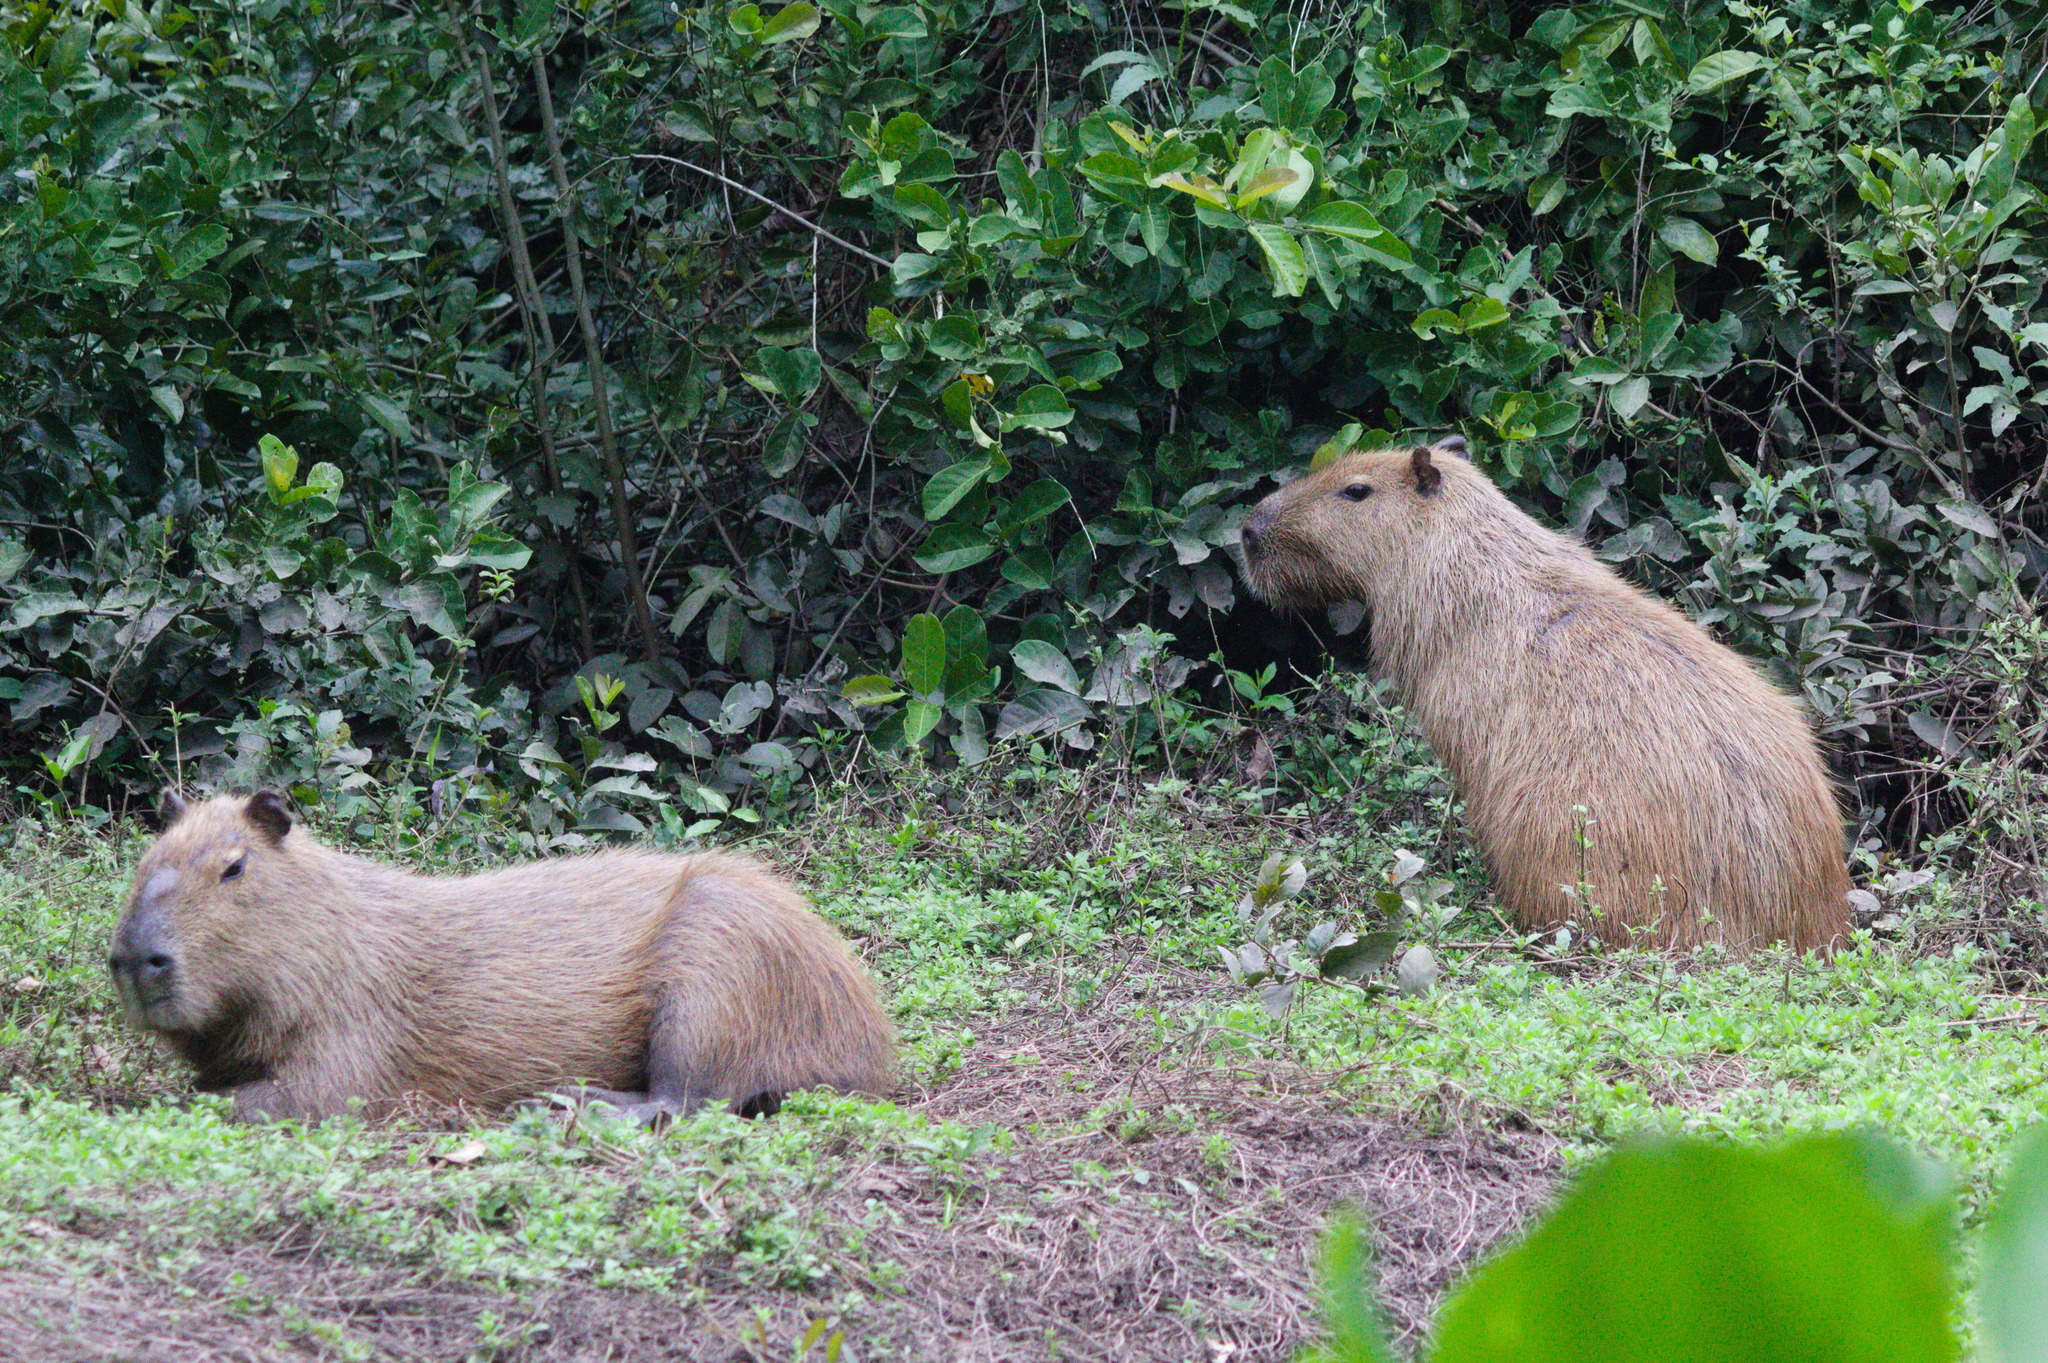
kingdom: Animalia
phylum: Chordata
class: Mammalia
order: Rodentia
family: Caviidae
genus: Hydrochoerus
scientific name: Hydrochoerus hydrochaeris
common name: Capybara
